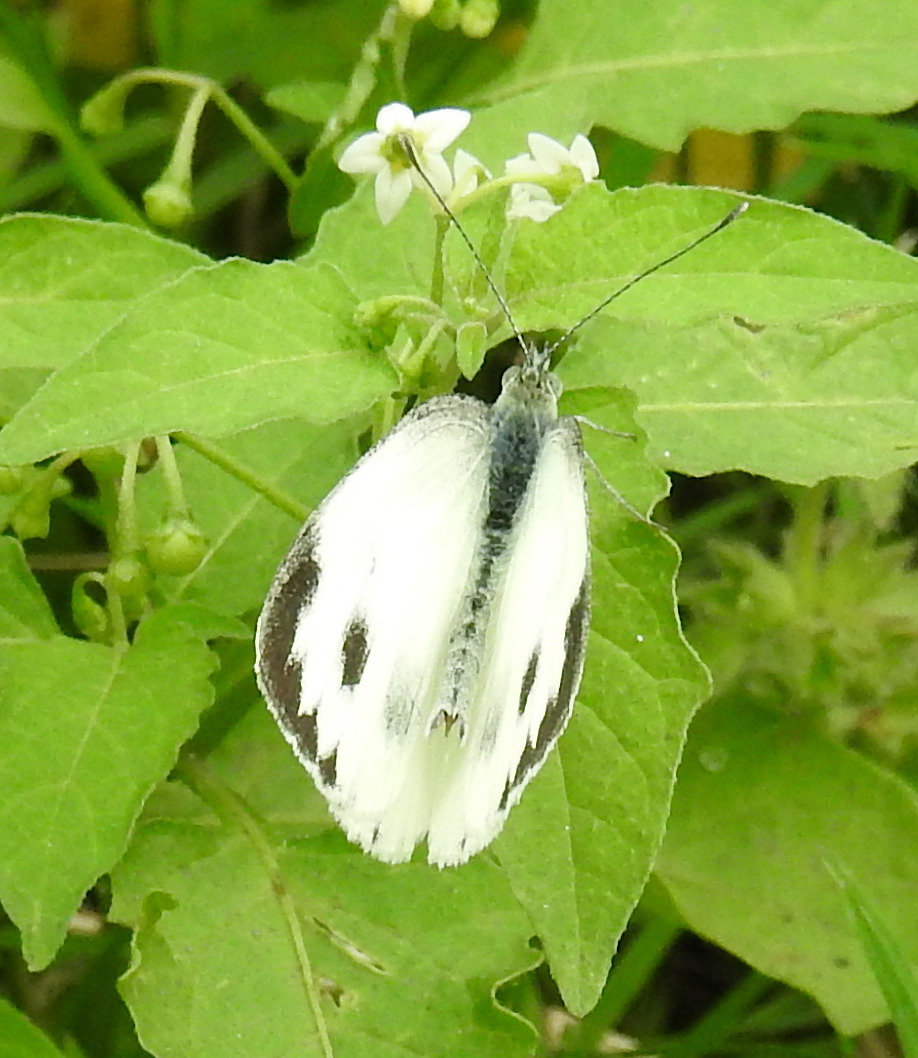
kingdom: Animalia
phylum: Arthropoda
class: Insecta
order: Lepidoptera
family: Pieridae
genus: Pieris
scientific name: Pieris canidia
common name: Indian cabbage white
